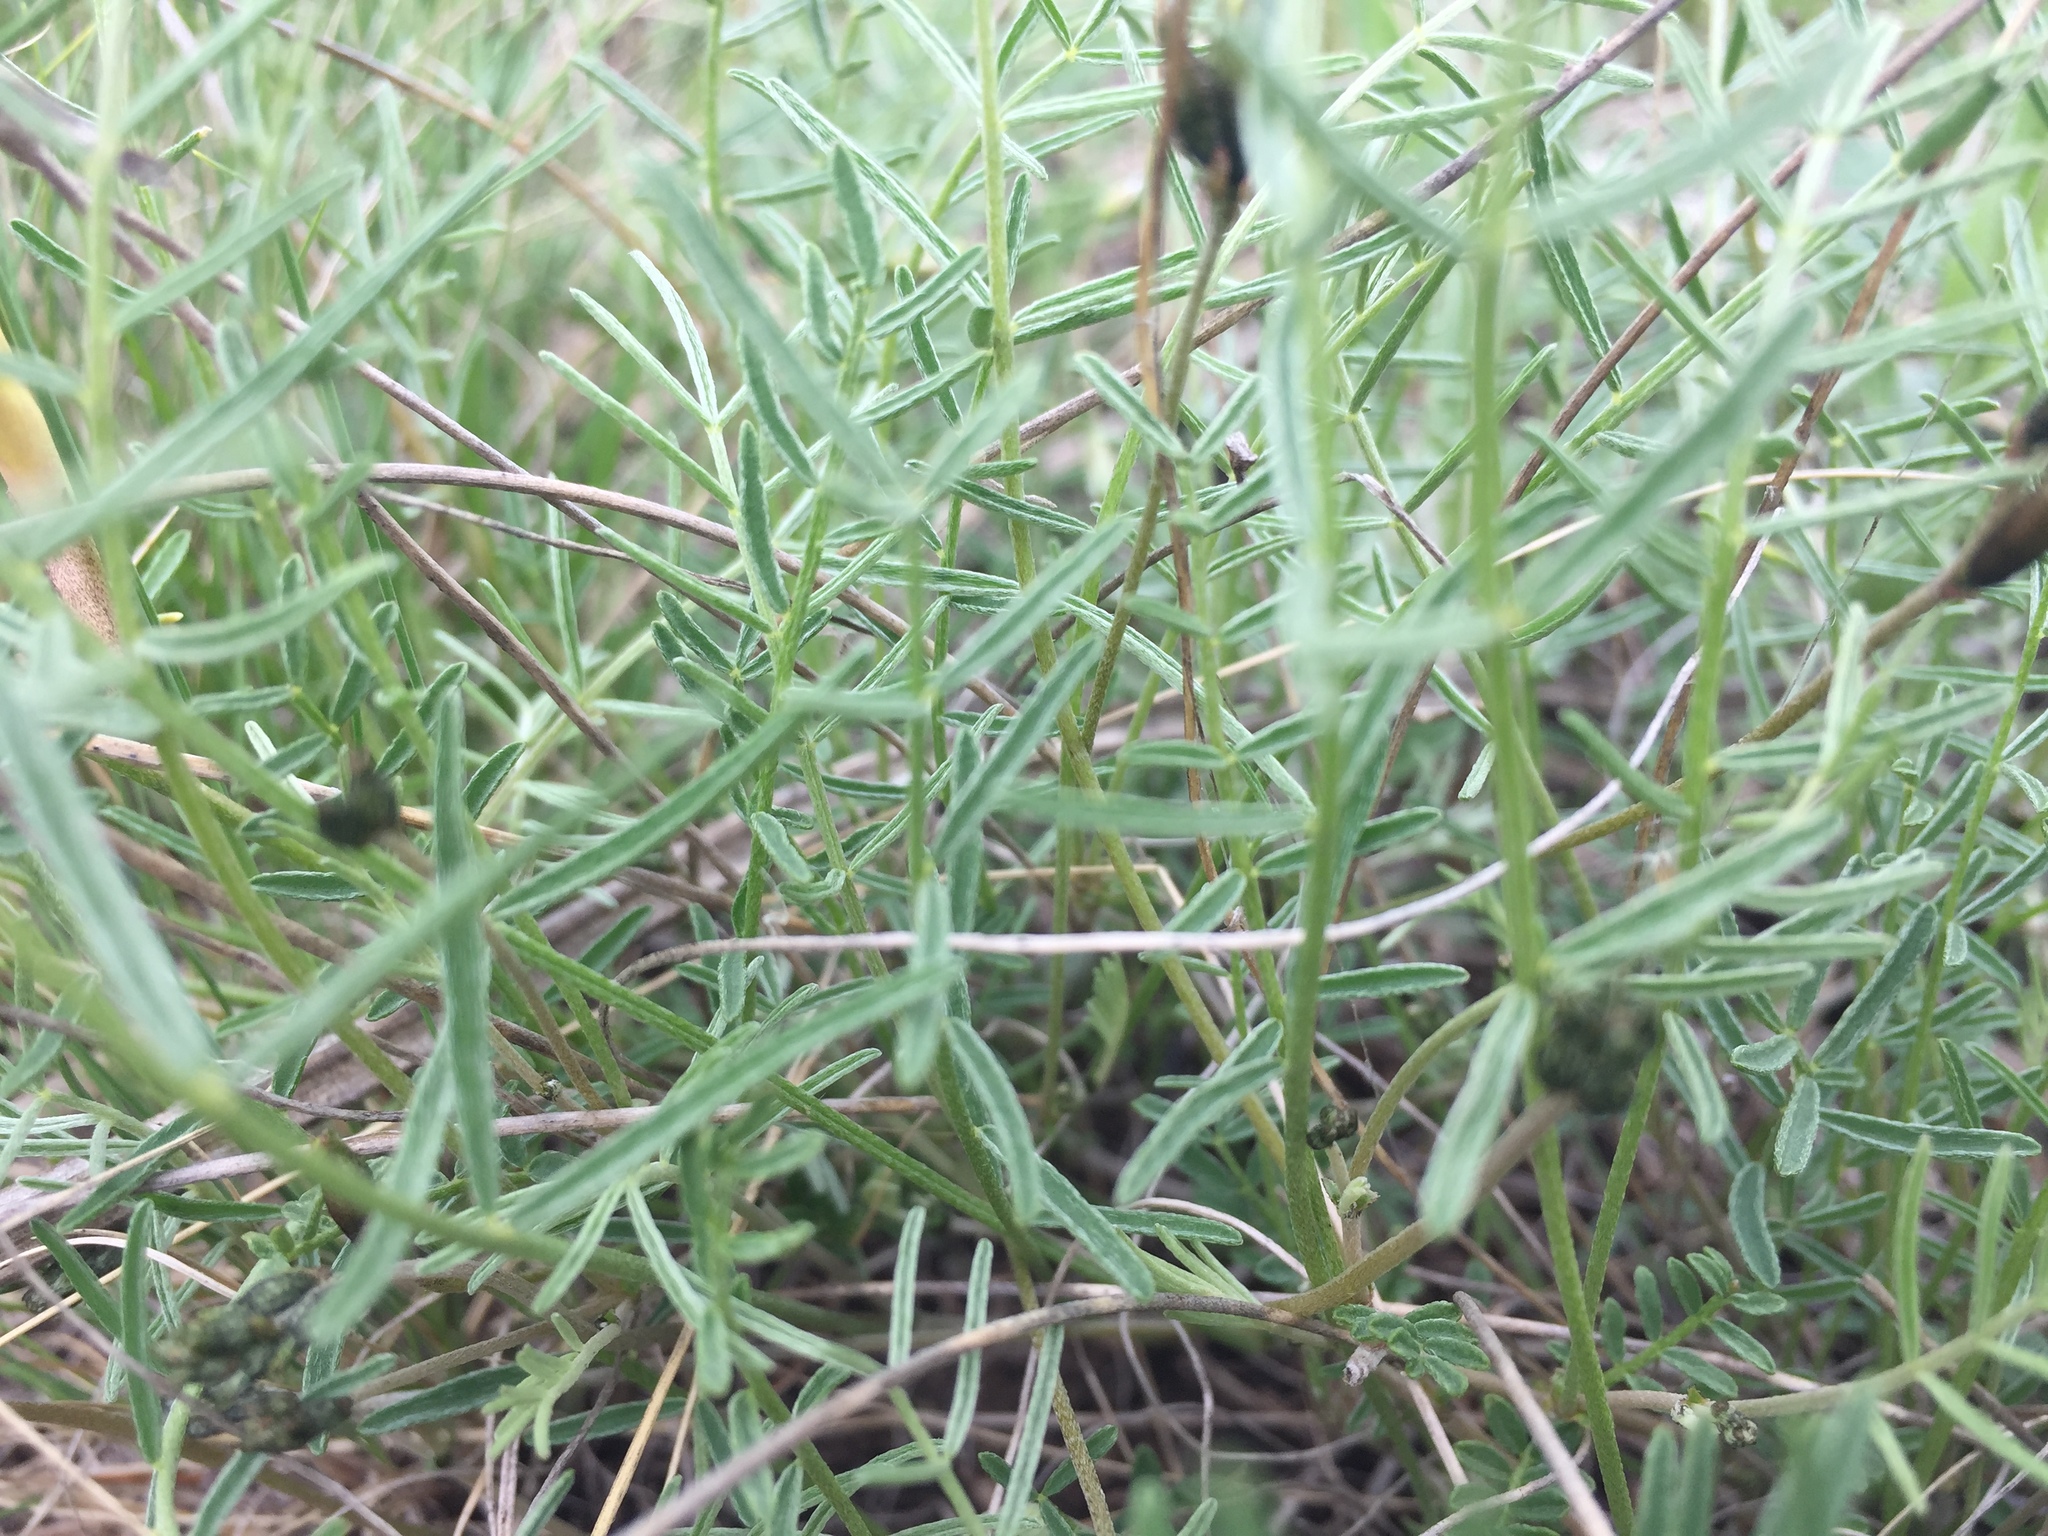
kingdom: Plantae
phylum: Tracheophyta
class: Magnoliopsida
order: Fabales
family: Fabaceae
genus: Astragalus
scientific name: Astragalus ucrainicus
